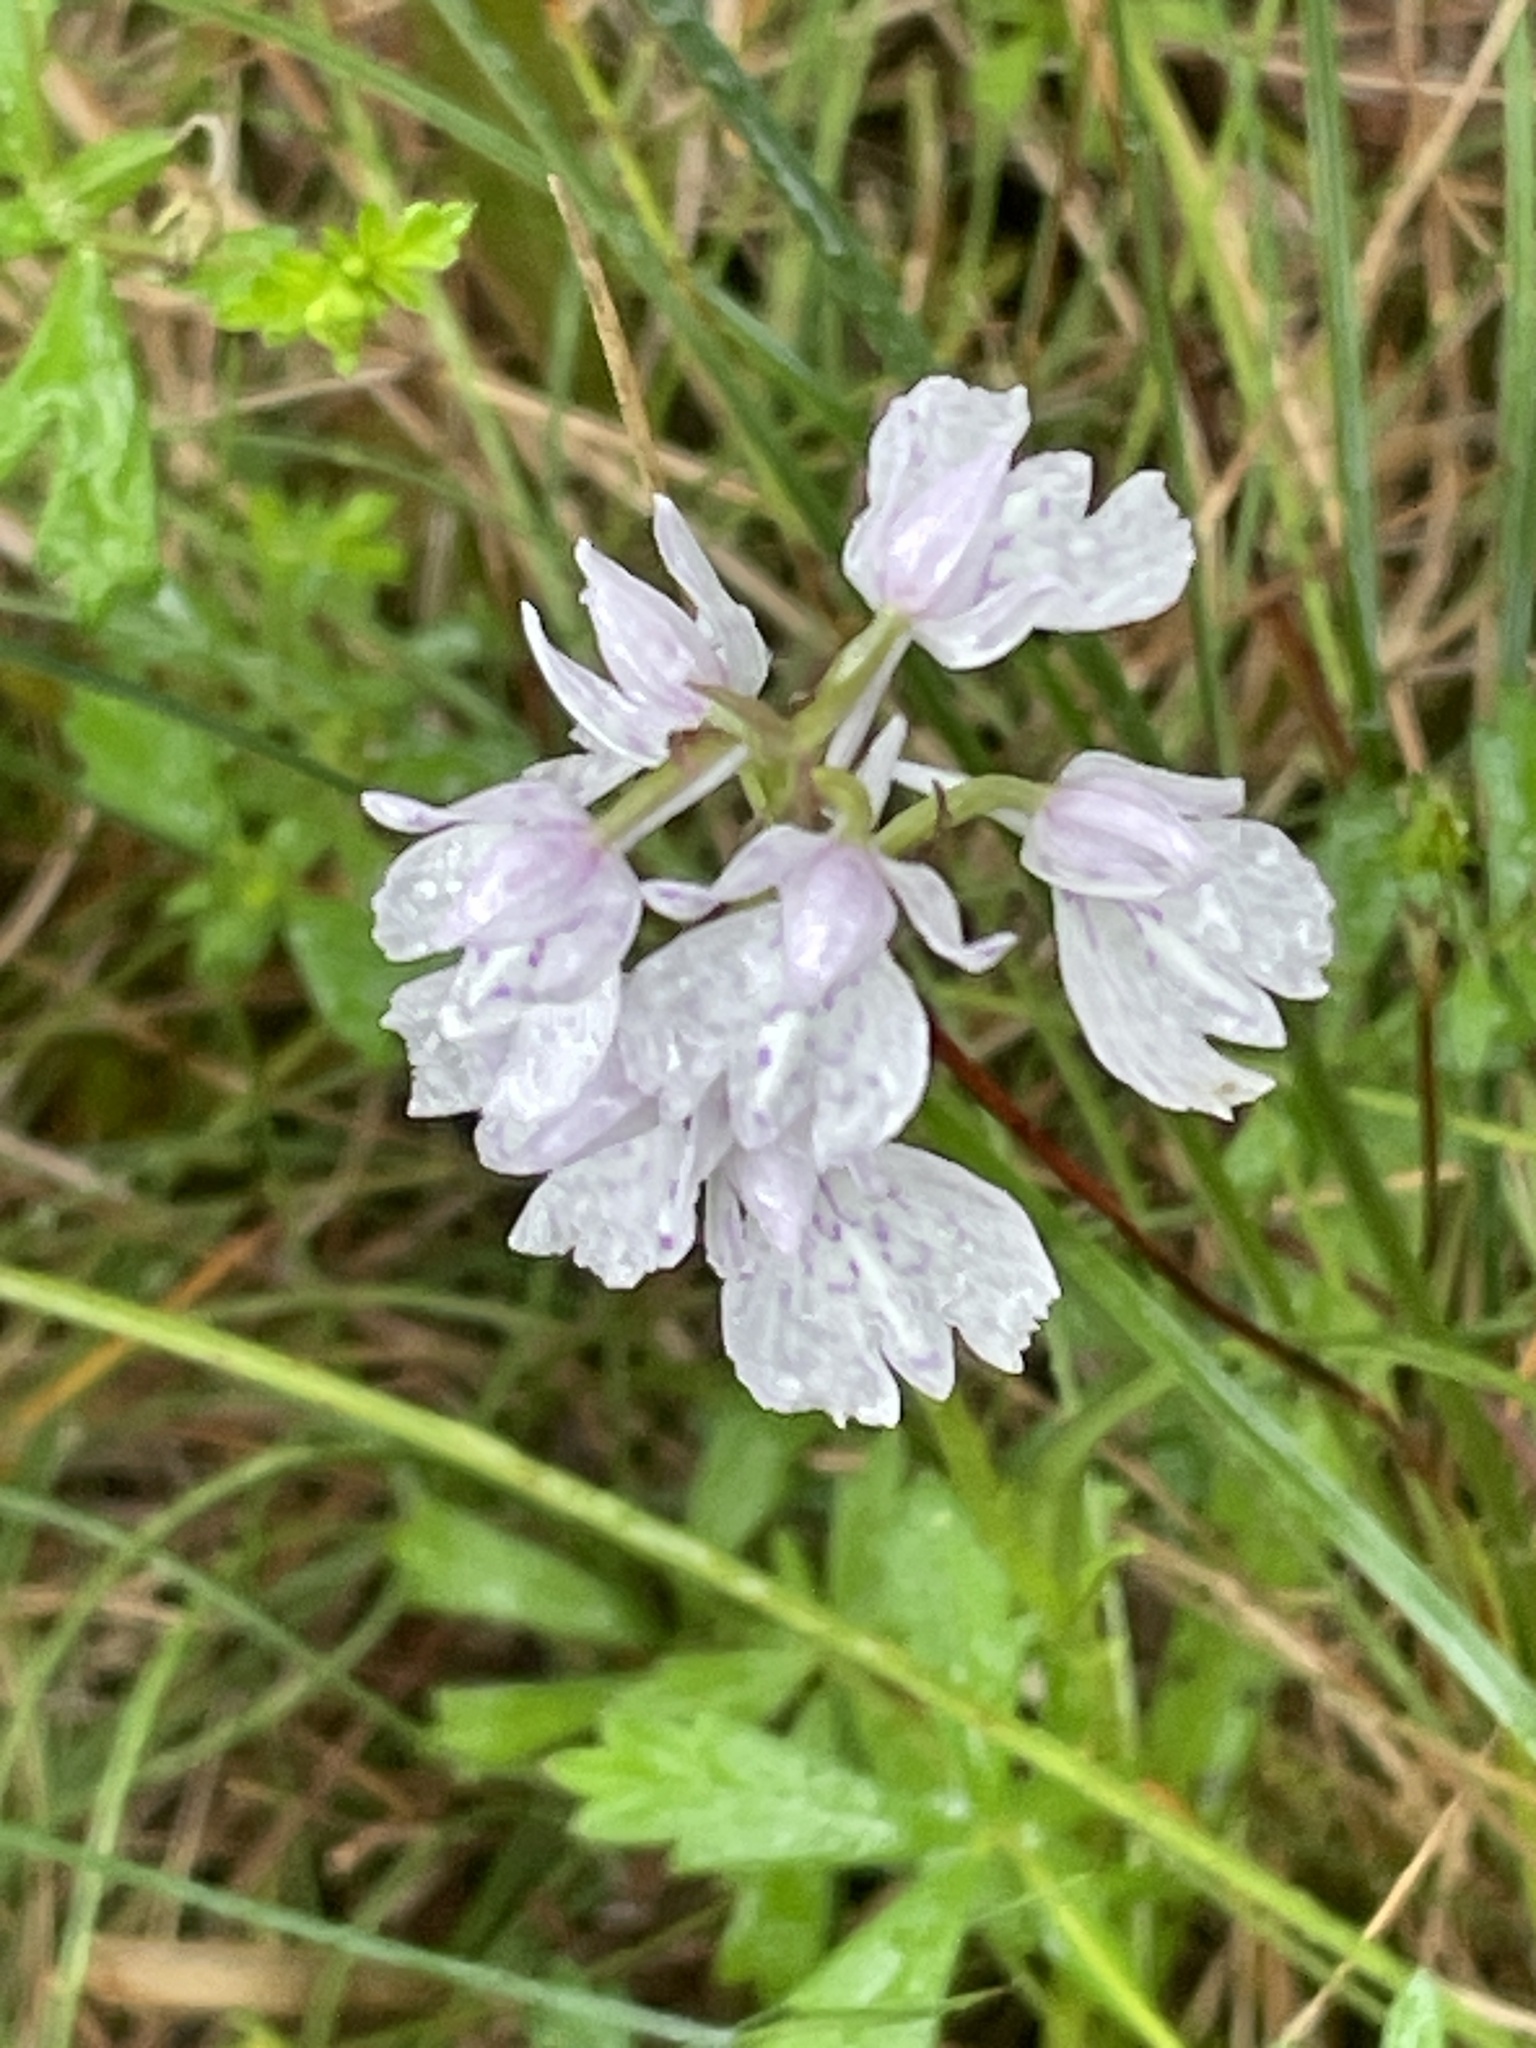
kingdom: Plantae
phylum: Tracheophyta
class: Liliopsida
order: Asparagales
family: Orchidaceae
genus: Dactylorhiza
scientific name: Dactylorhiza maculata
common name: Heath spotted-orchid
